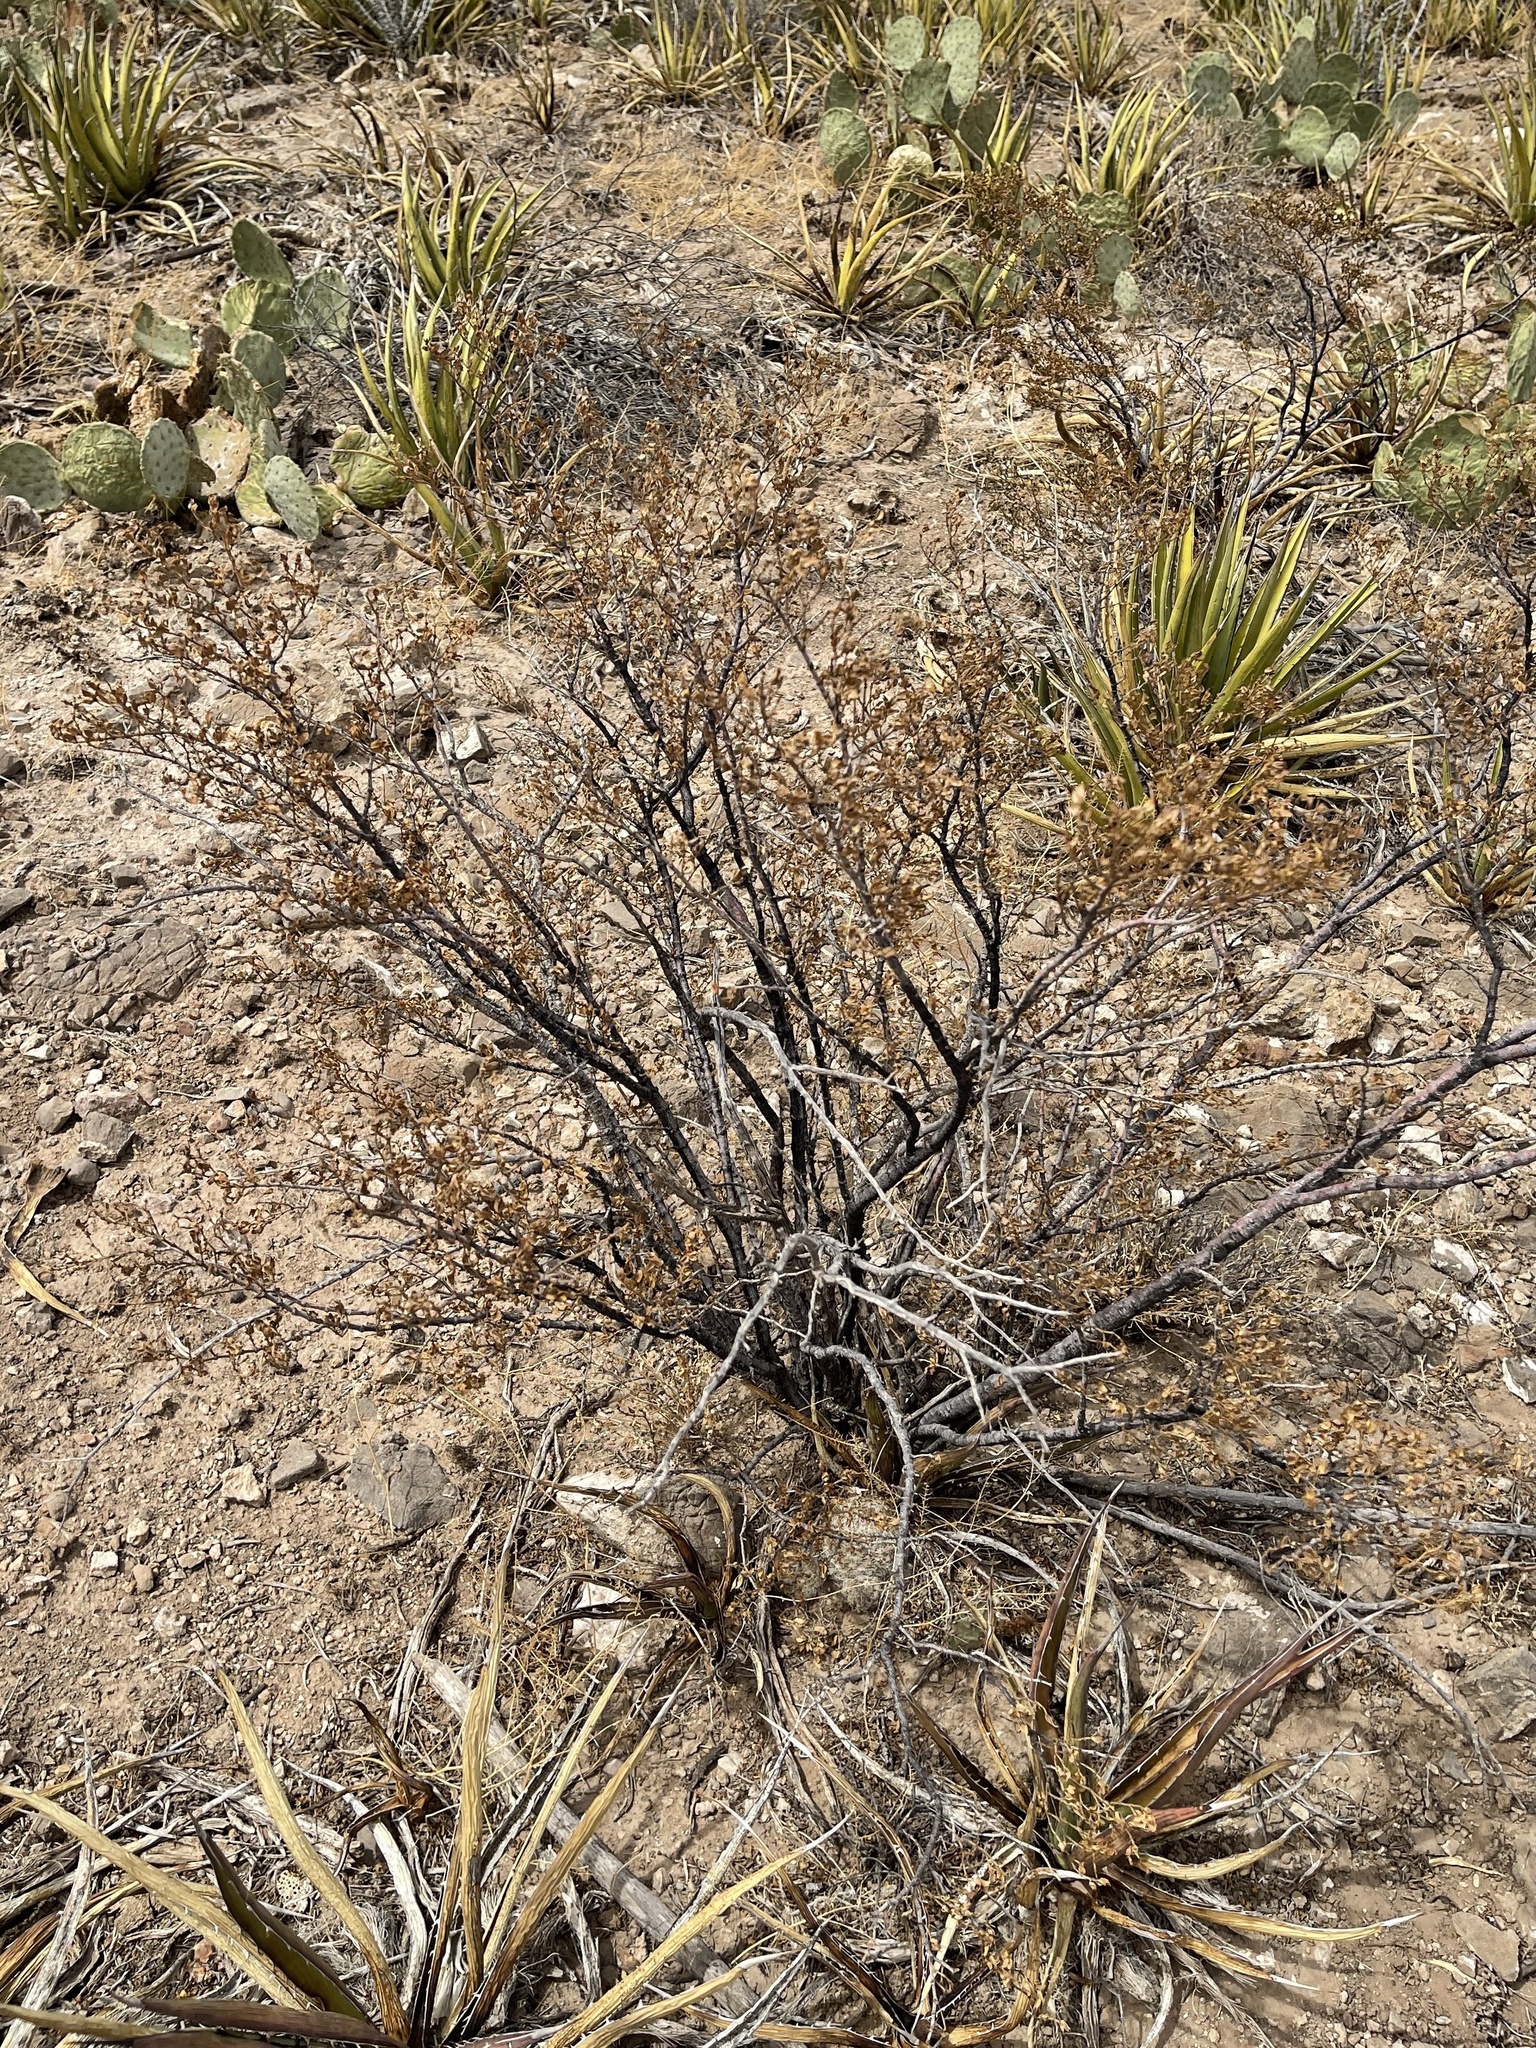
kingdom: Plantae
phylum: Tracheophyta
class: Magnoliopsida
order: Zygophyllales
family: Zygophyllaceae
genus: Larrea
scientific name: Larrea tridentata
